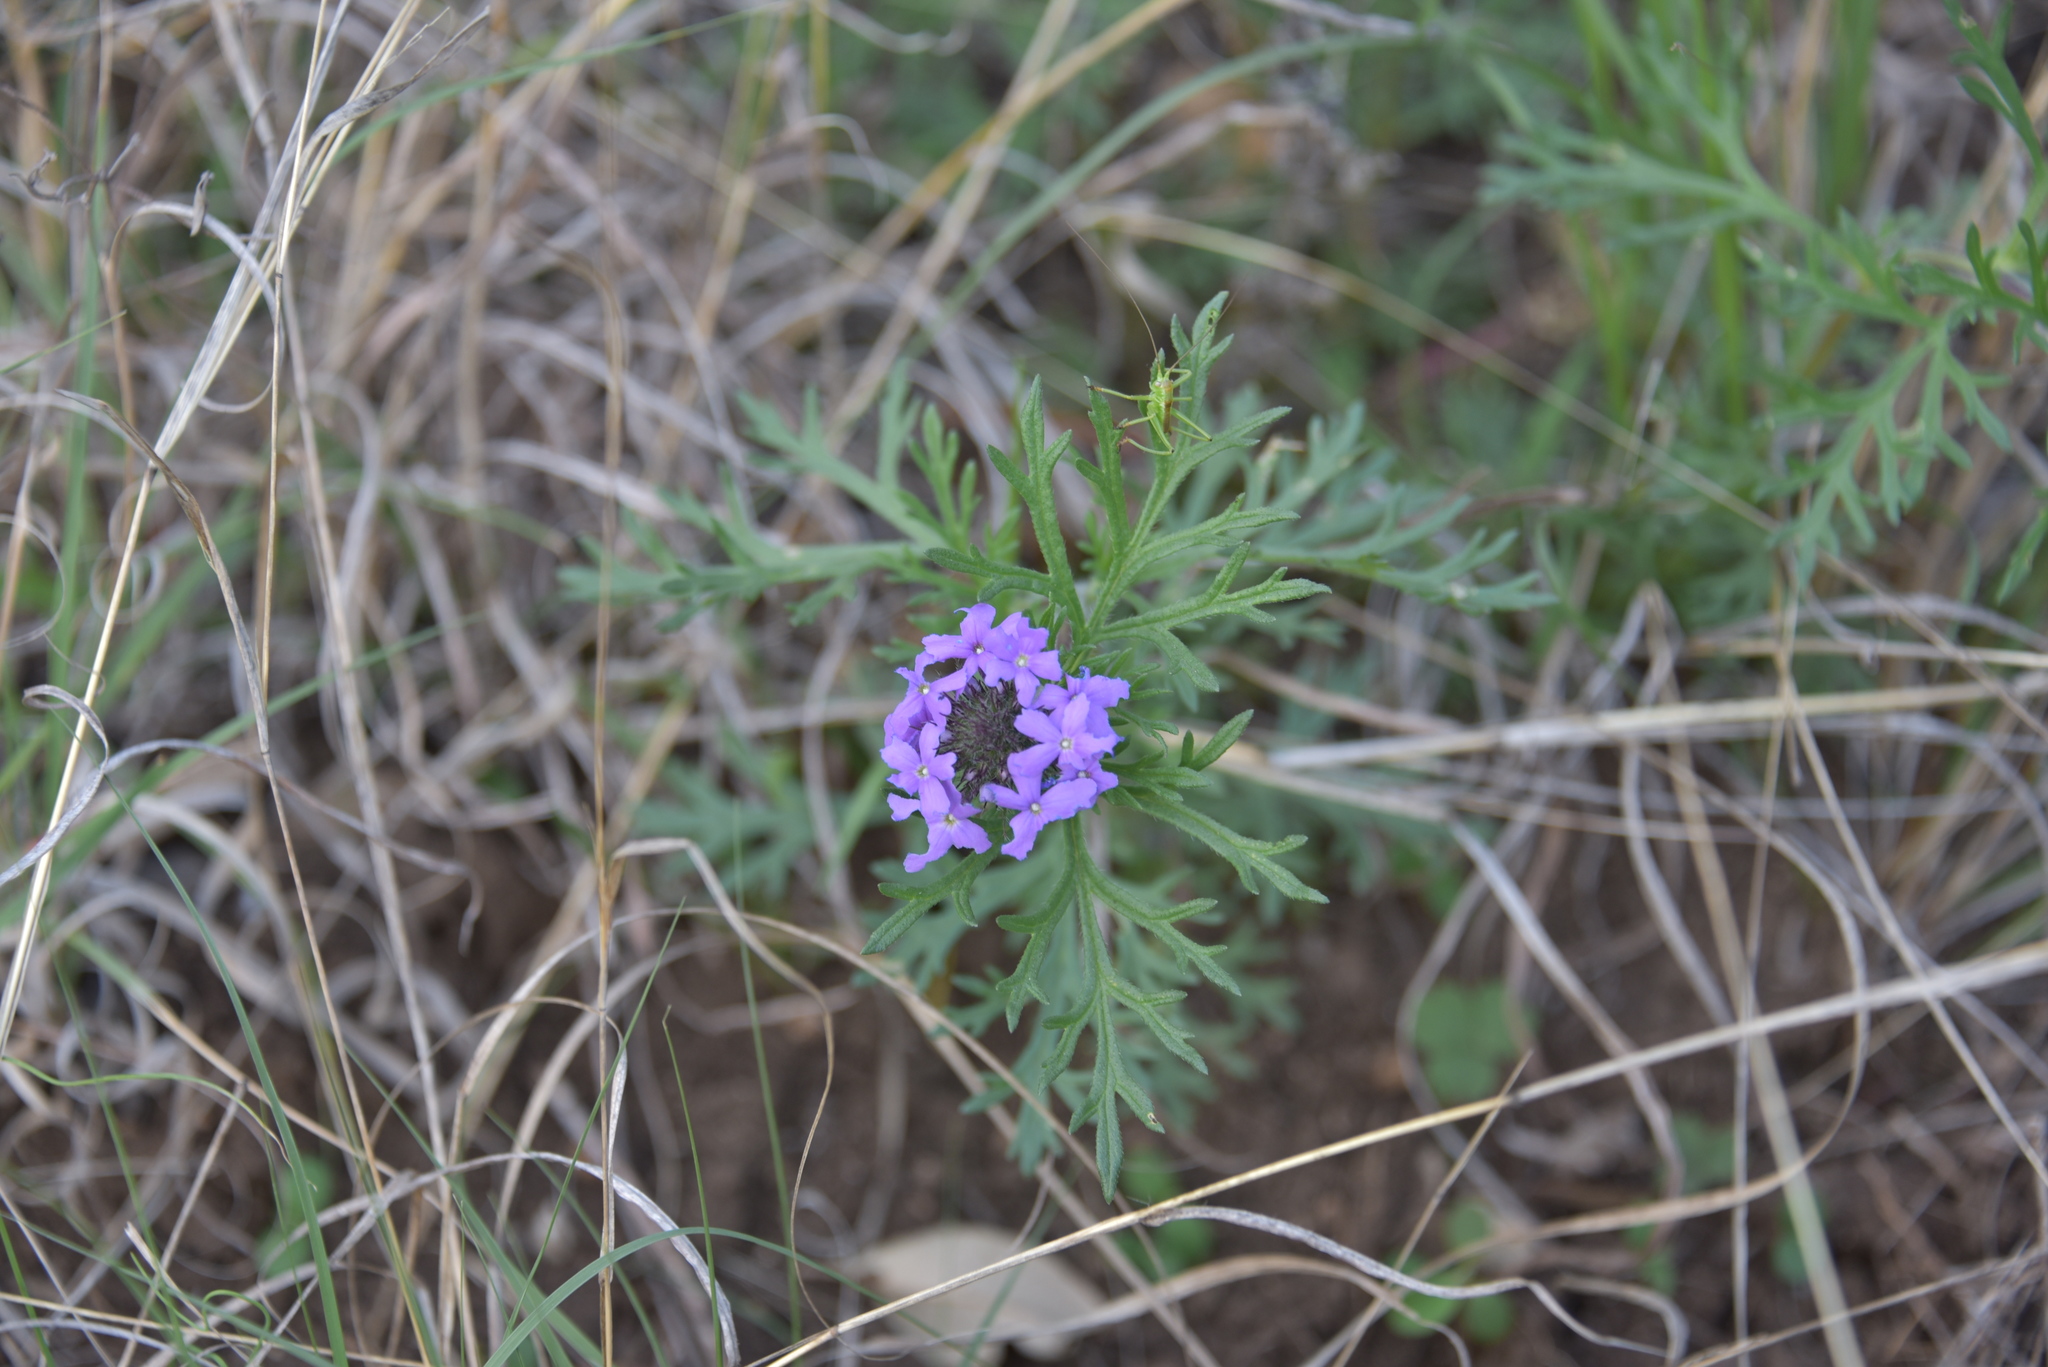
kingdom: Plantae
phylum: Tracheophyta
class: Magnoliopsida
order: Lamiales
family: Verbenaceae
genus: Verbena
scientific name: Verbena bipinnatifida
